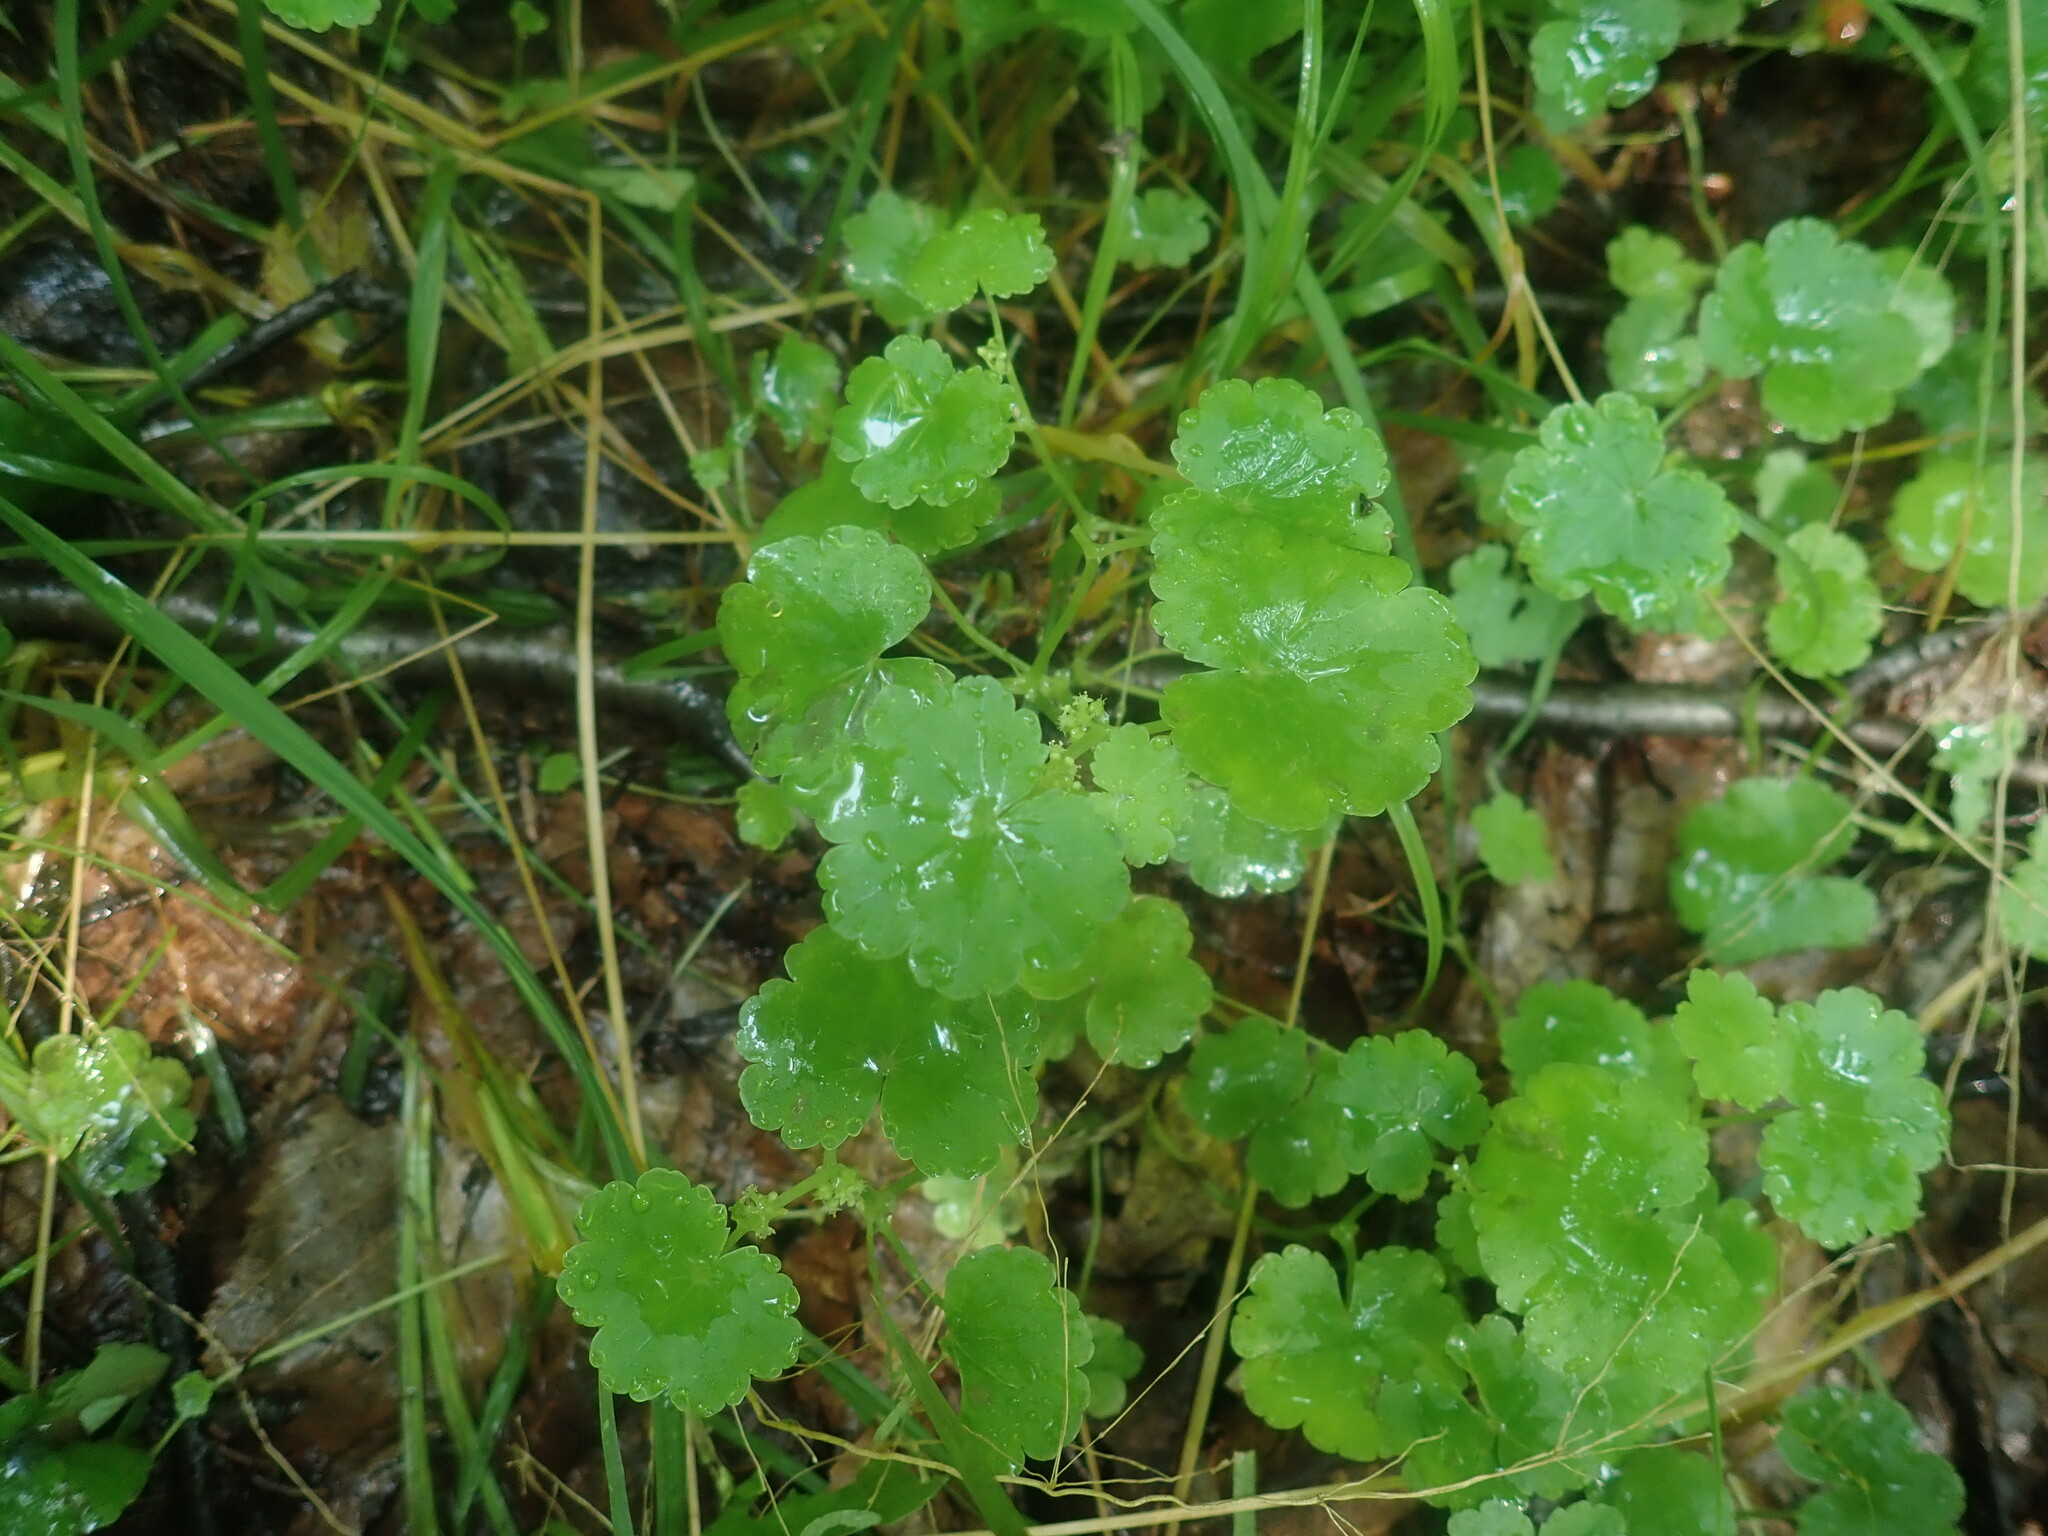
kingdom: Plantae
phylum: Tracheophyta
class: Magnoliopsida
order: Apiales
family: Araliaceae
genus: Hydrocotyle
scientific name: Hydrocotyle americana
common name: American water-pennywort
